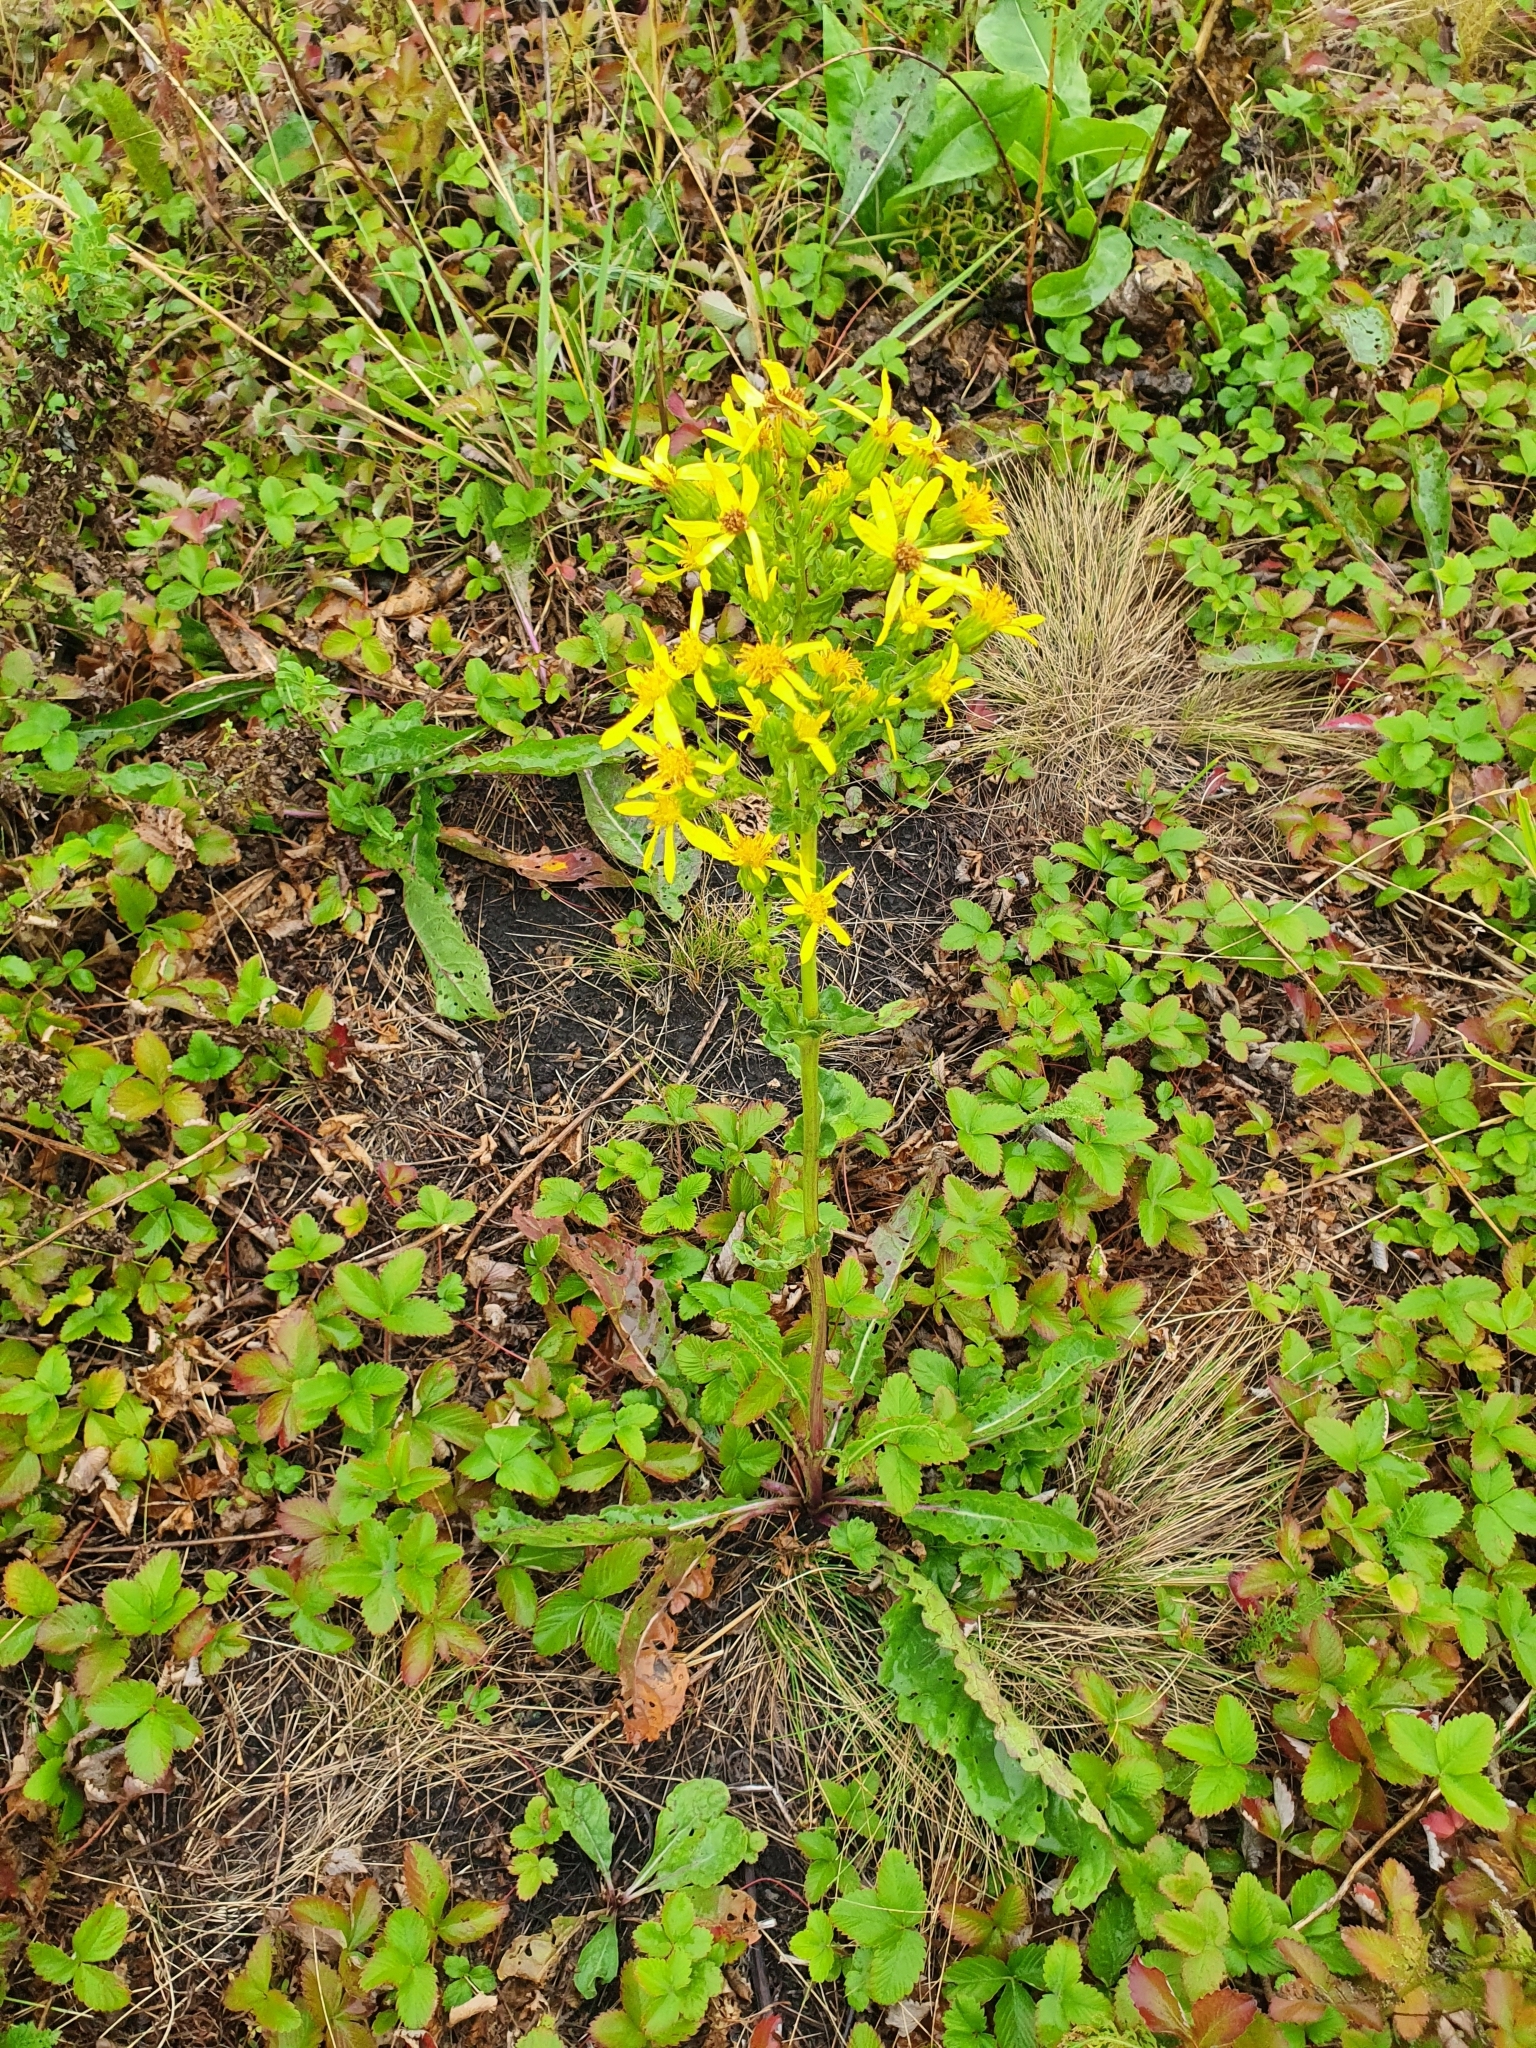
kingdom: Plantae
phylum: Tracheophyta
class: Magnoliopsida
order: Asterales
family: Asteraceae
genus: Jacobaea
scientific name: Jacobaea racemosa
